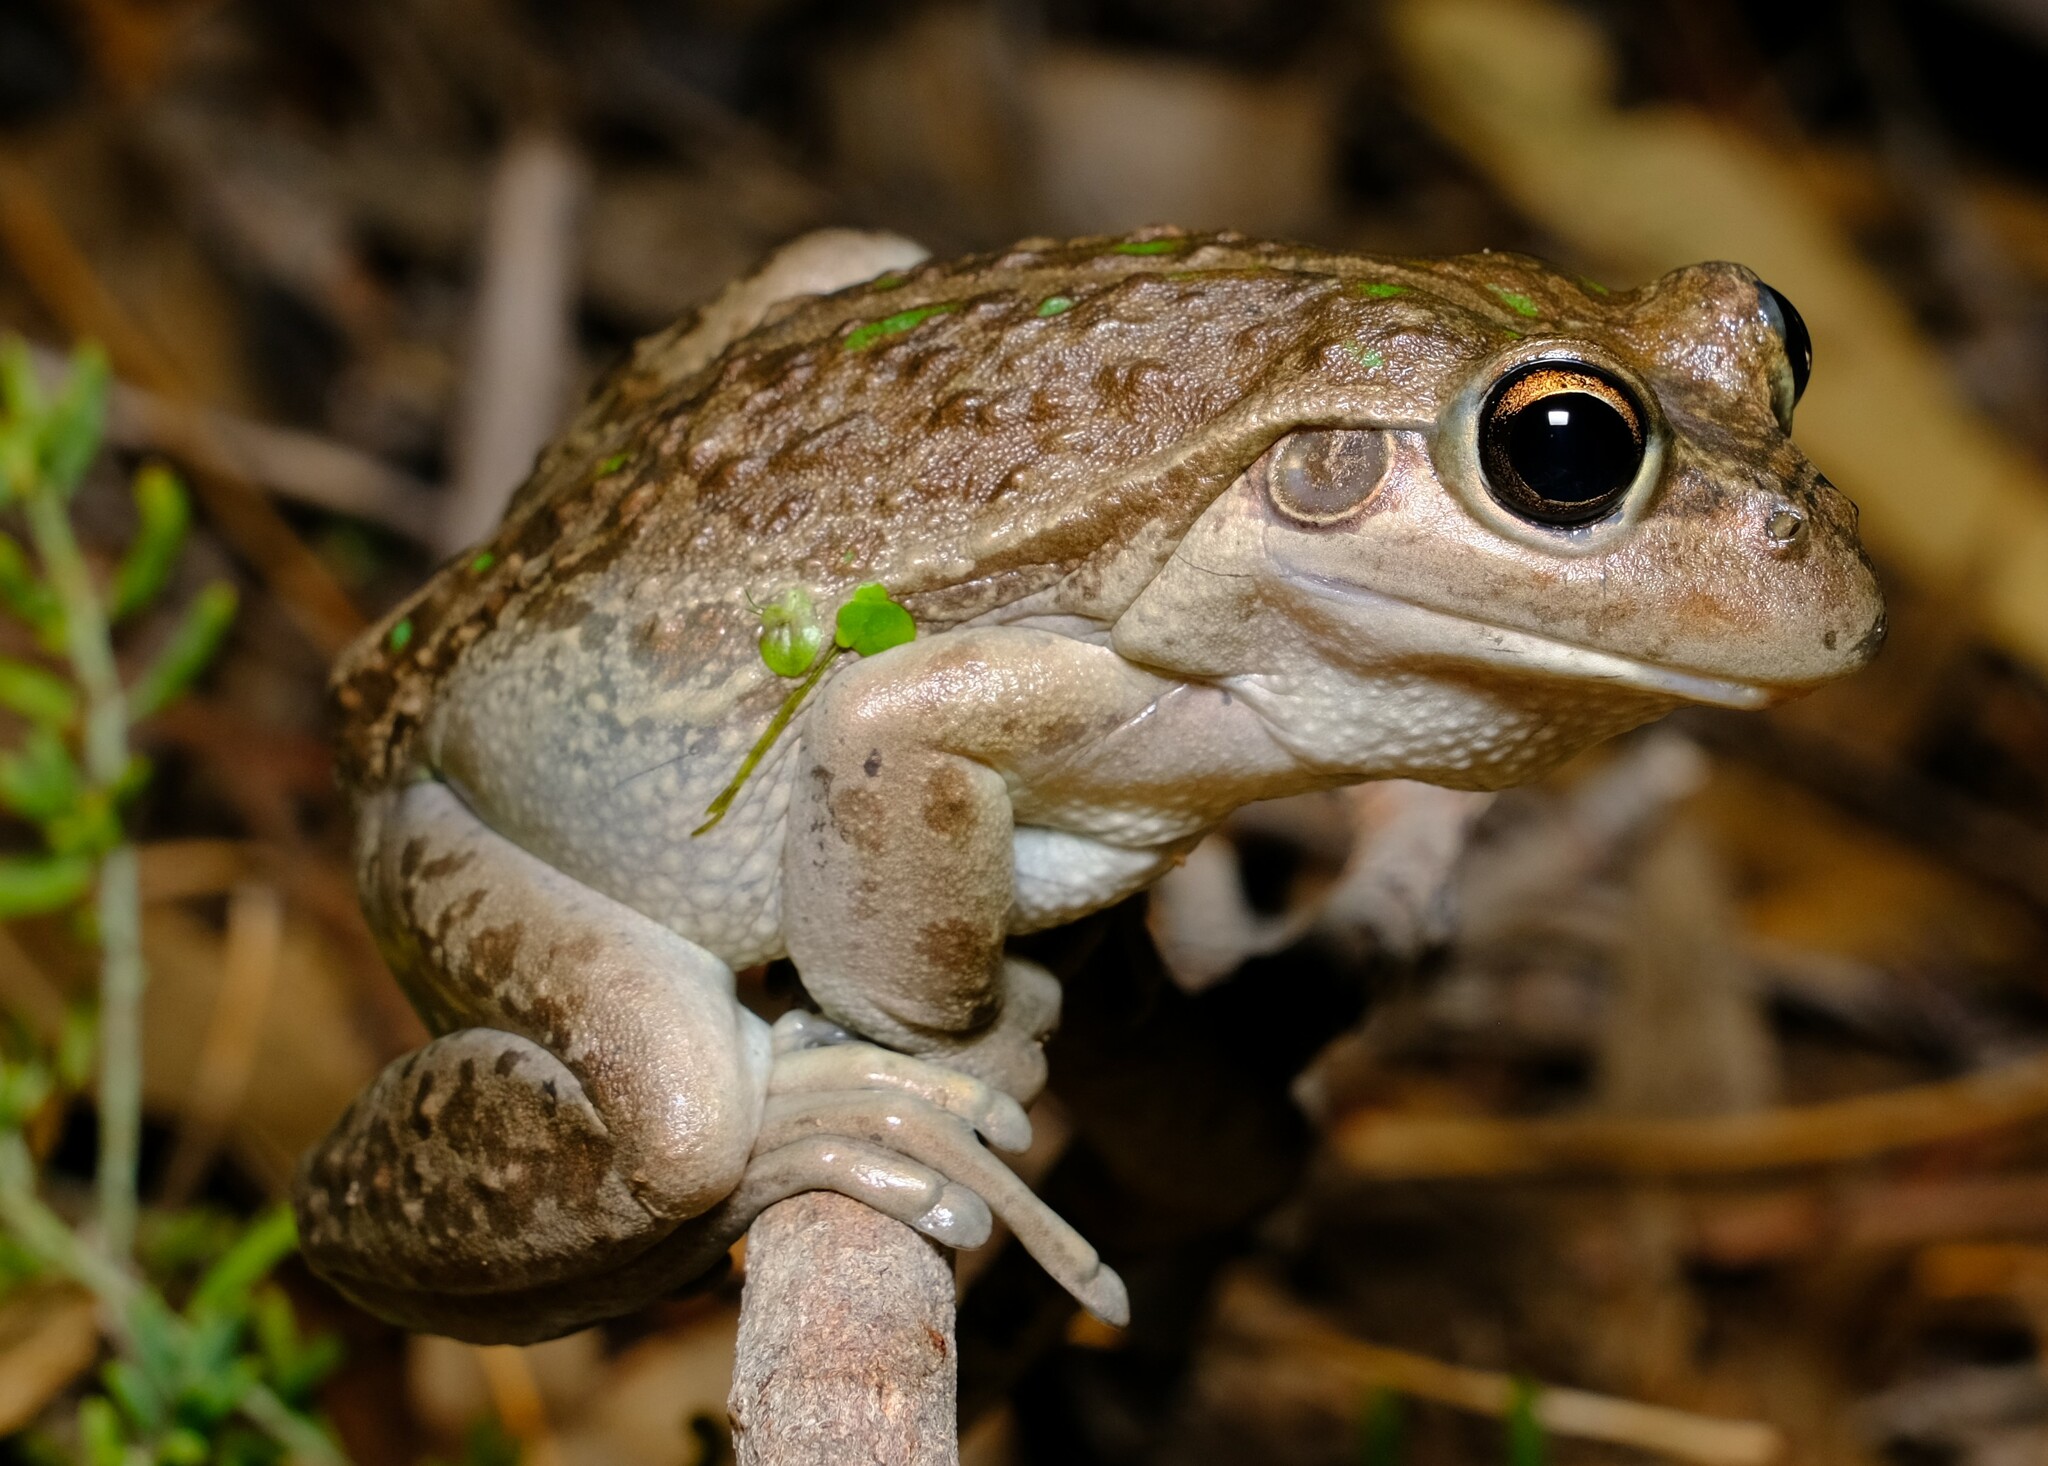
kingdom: Animalia
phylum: Chordata
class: Amphibia
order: Anura
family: Pelodryadidae
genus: Ranoidea
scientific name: Ranoidea moorei
